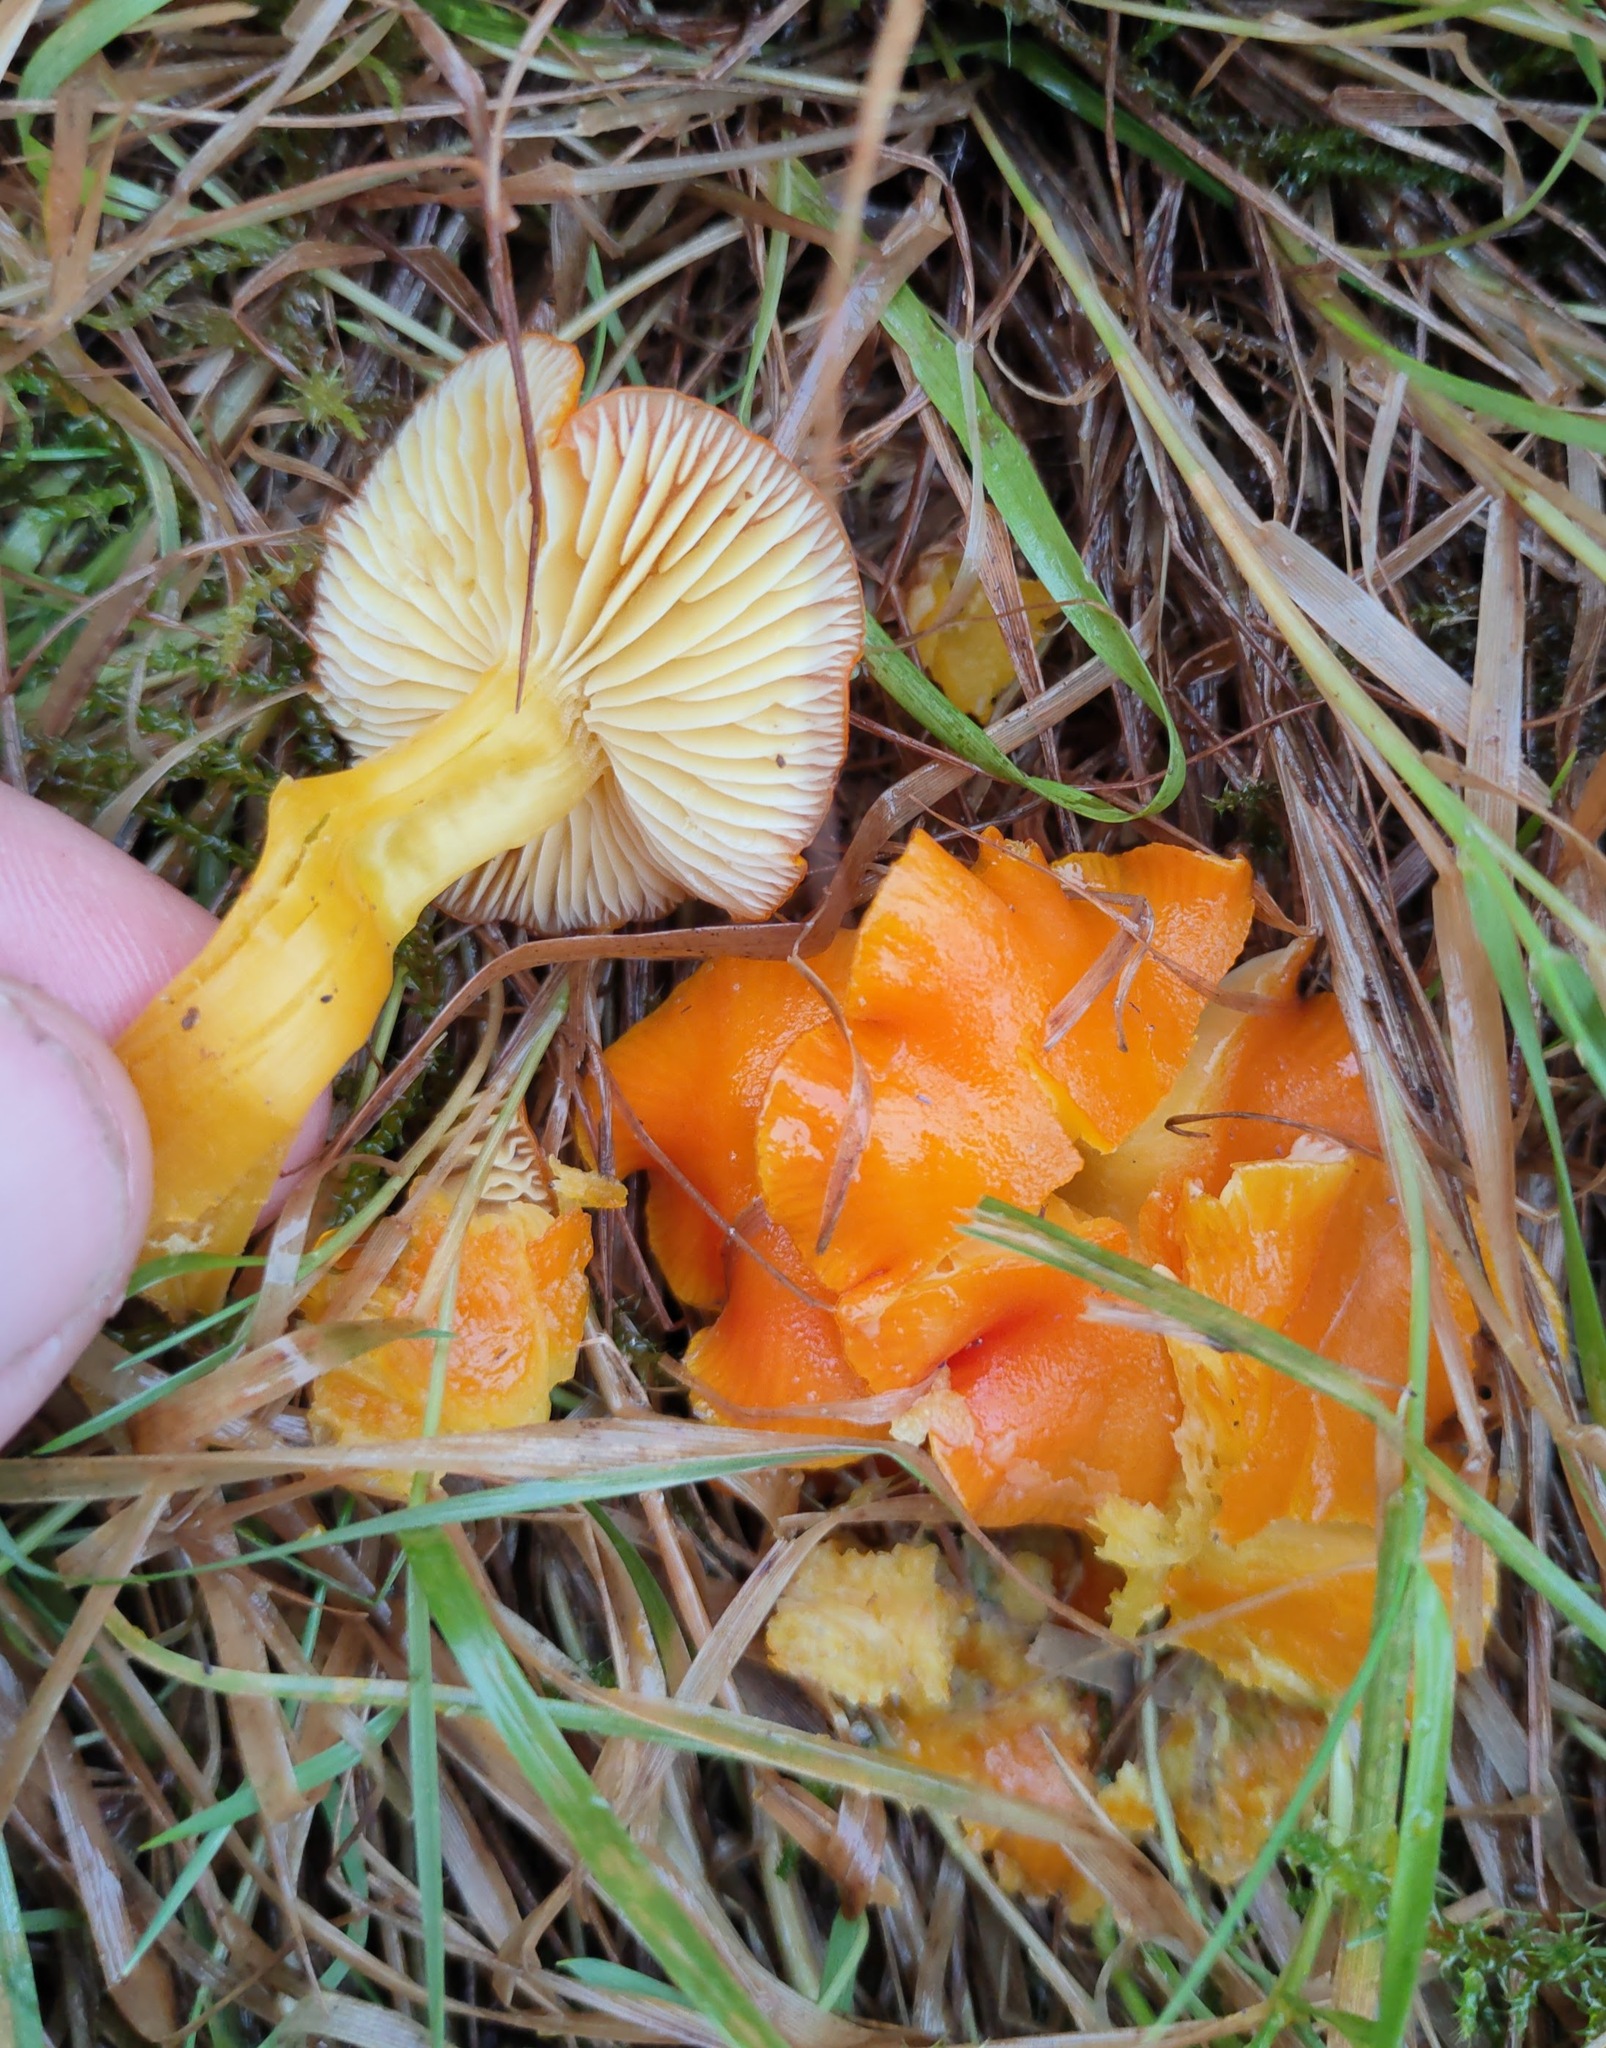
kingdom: Fungi
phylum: Basidiomycota
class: Agaricomycetes
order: Agaricales
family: Hygrophoraceae
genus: Hygrocybe
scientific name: Hygrocybe ceracea
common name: Butter waxcap
